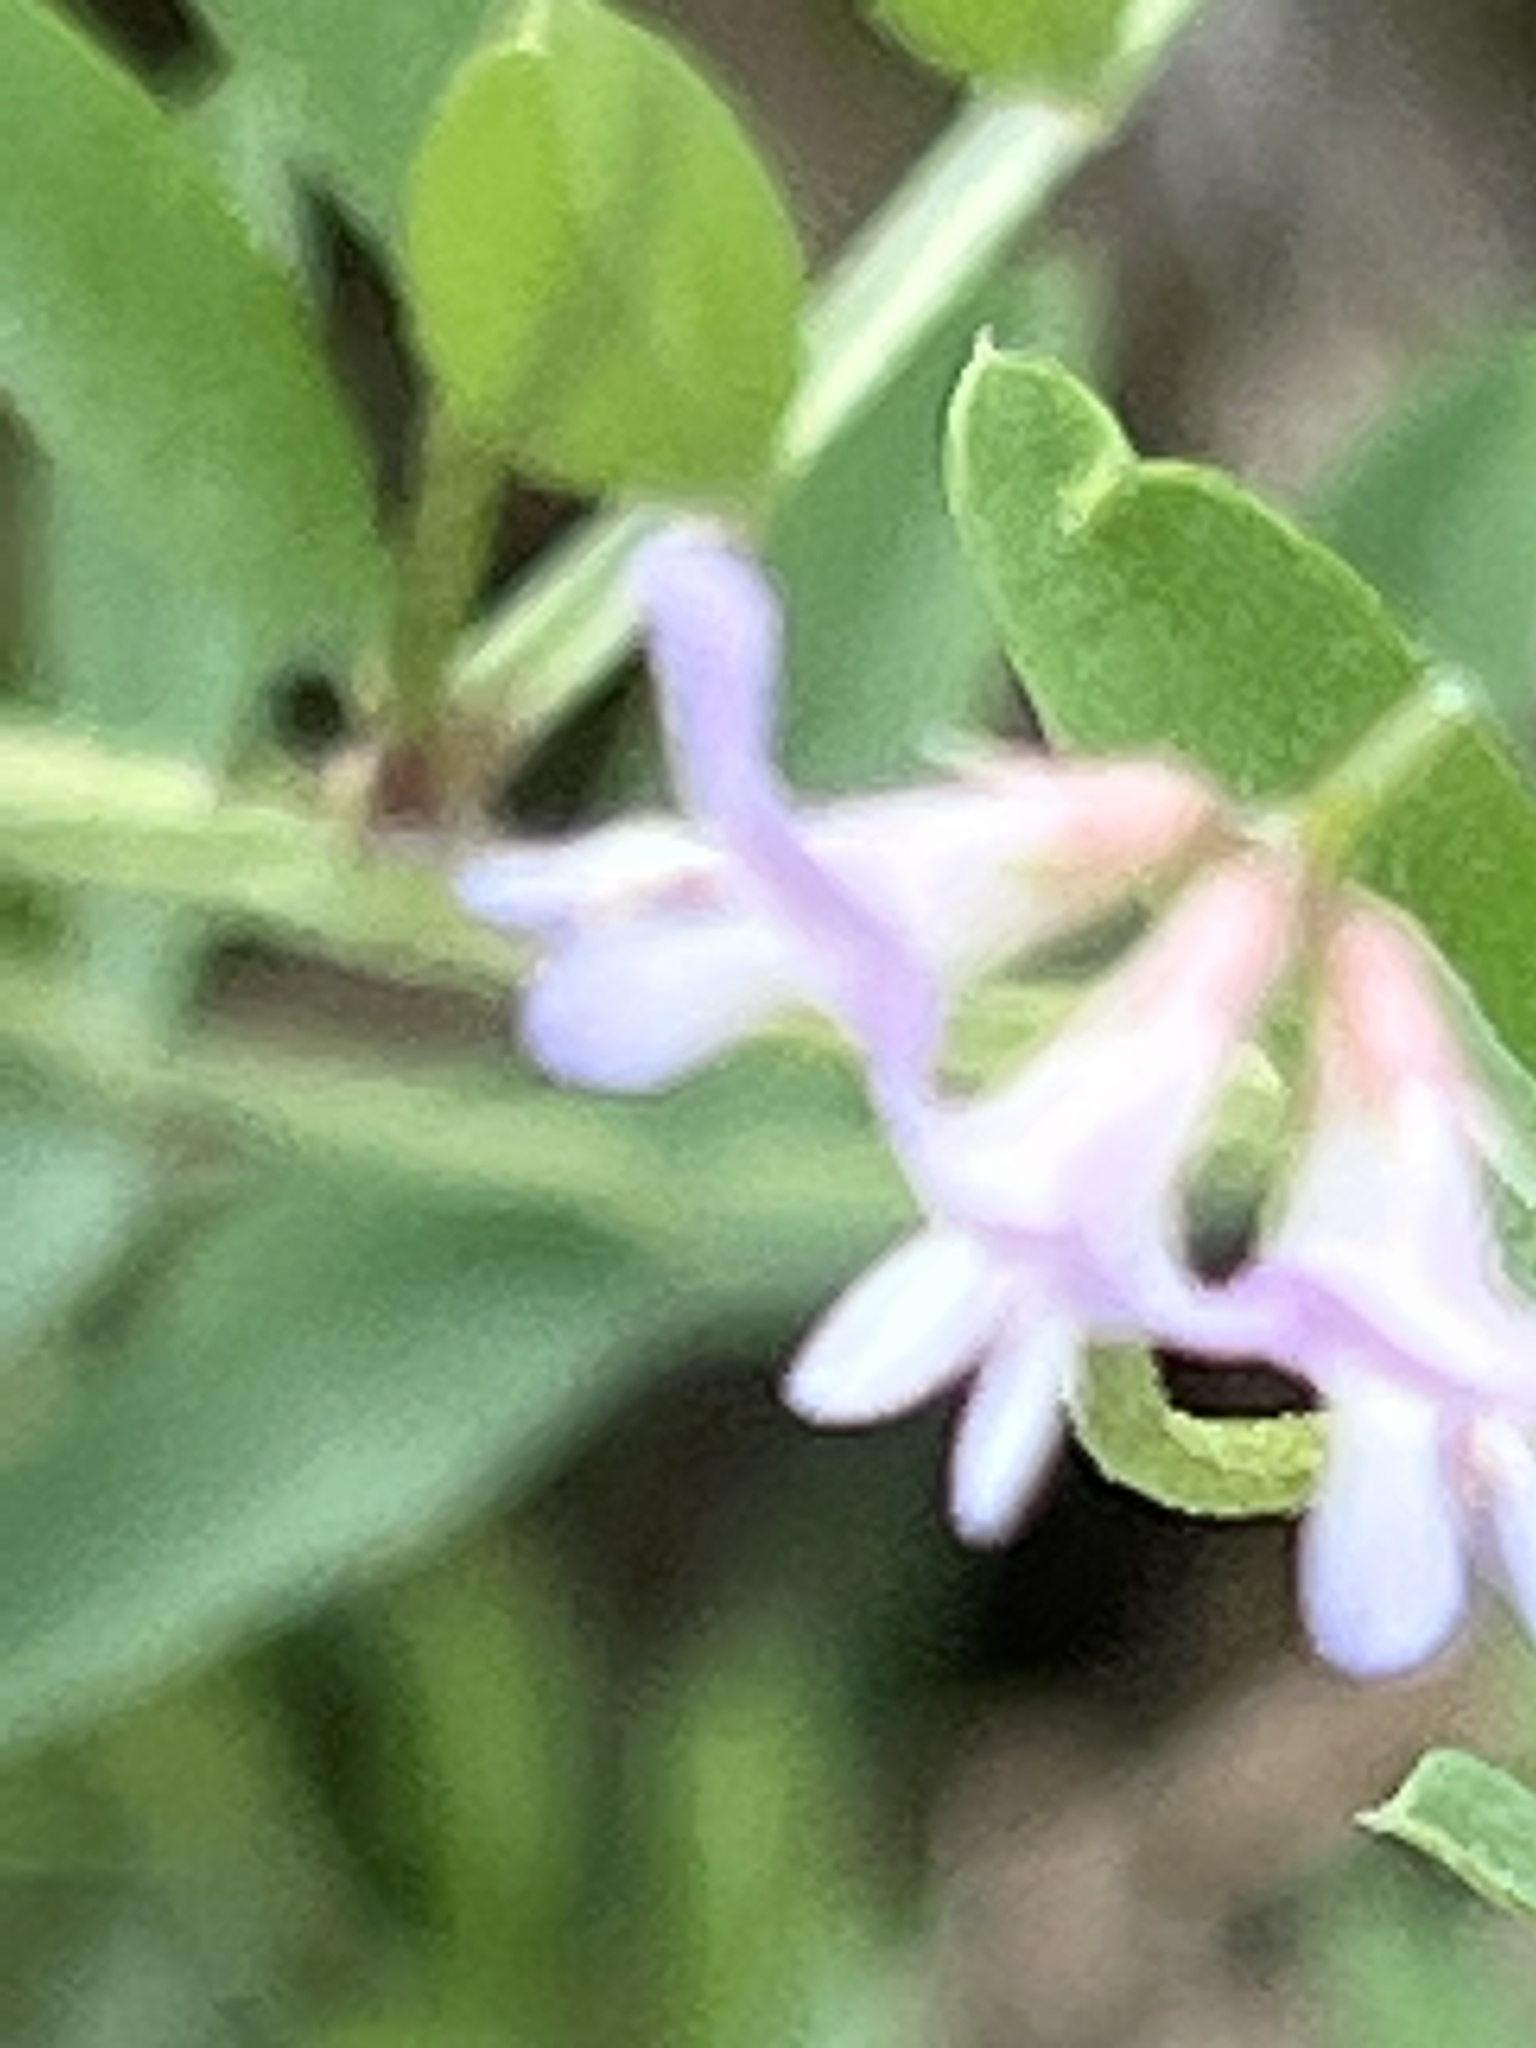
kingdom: Plantae
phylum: Tracheophyta
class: Magnoliopsida
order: Fabales
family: Fabaceae
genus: Vicia
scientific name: Vicia ludoviciana
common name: Louisiana vetch
